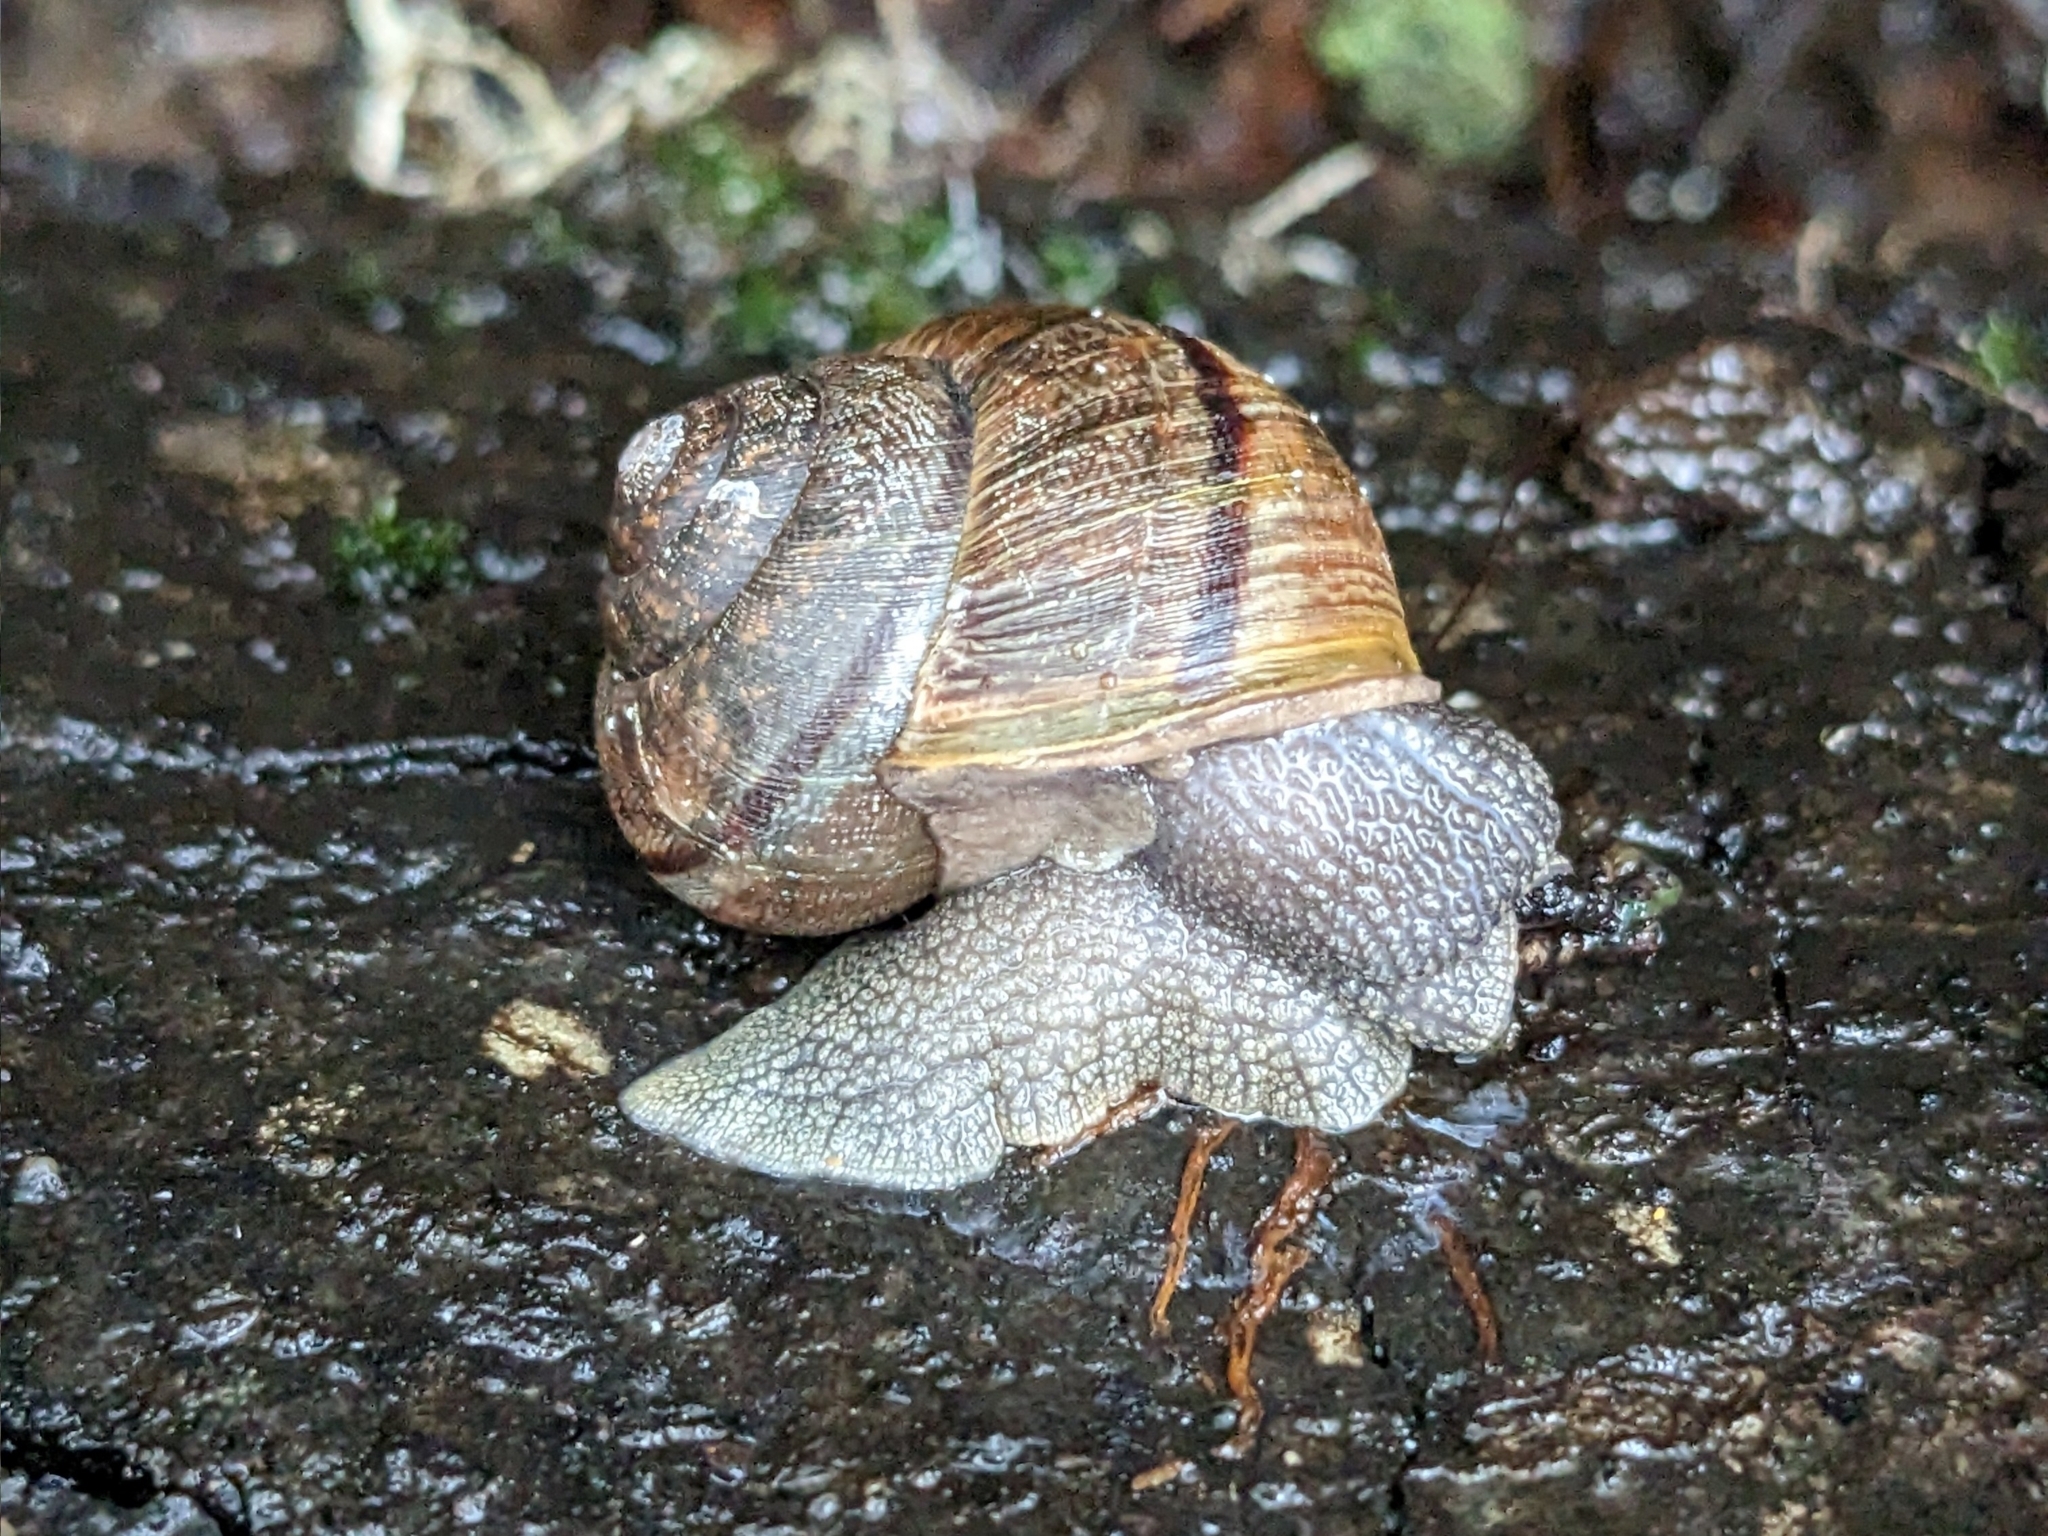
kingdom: Animalia
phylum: Mollusca
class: Gastropoda
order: Stylommatophora
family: Xanthonychidae
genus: Helminthoglypta
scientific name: Helminthoglypta nickliniana
